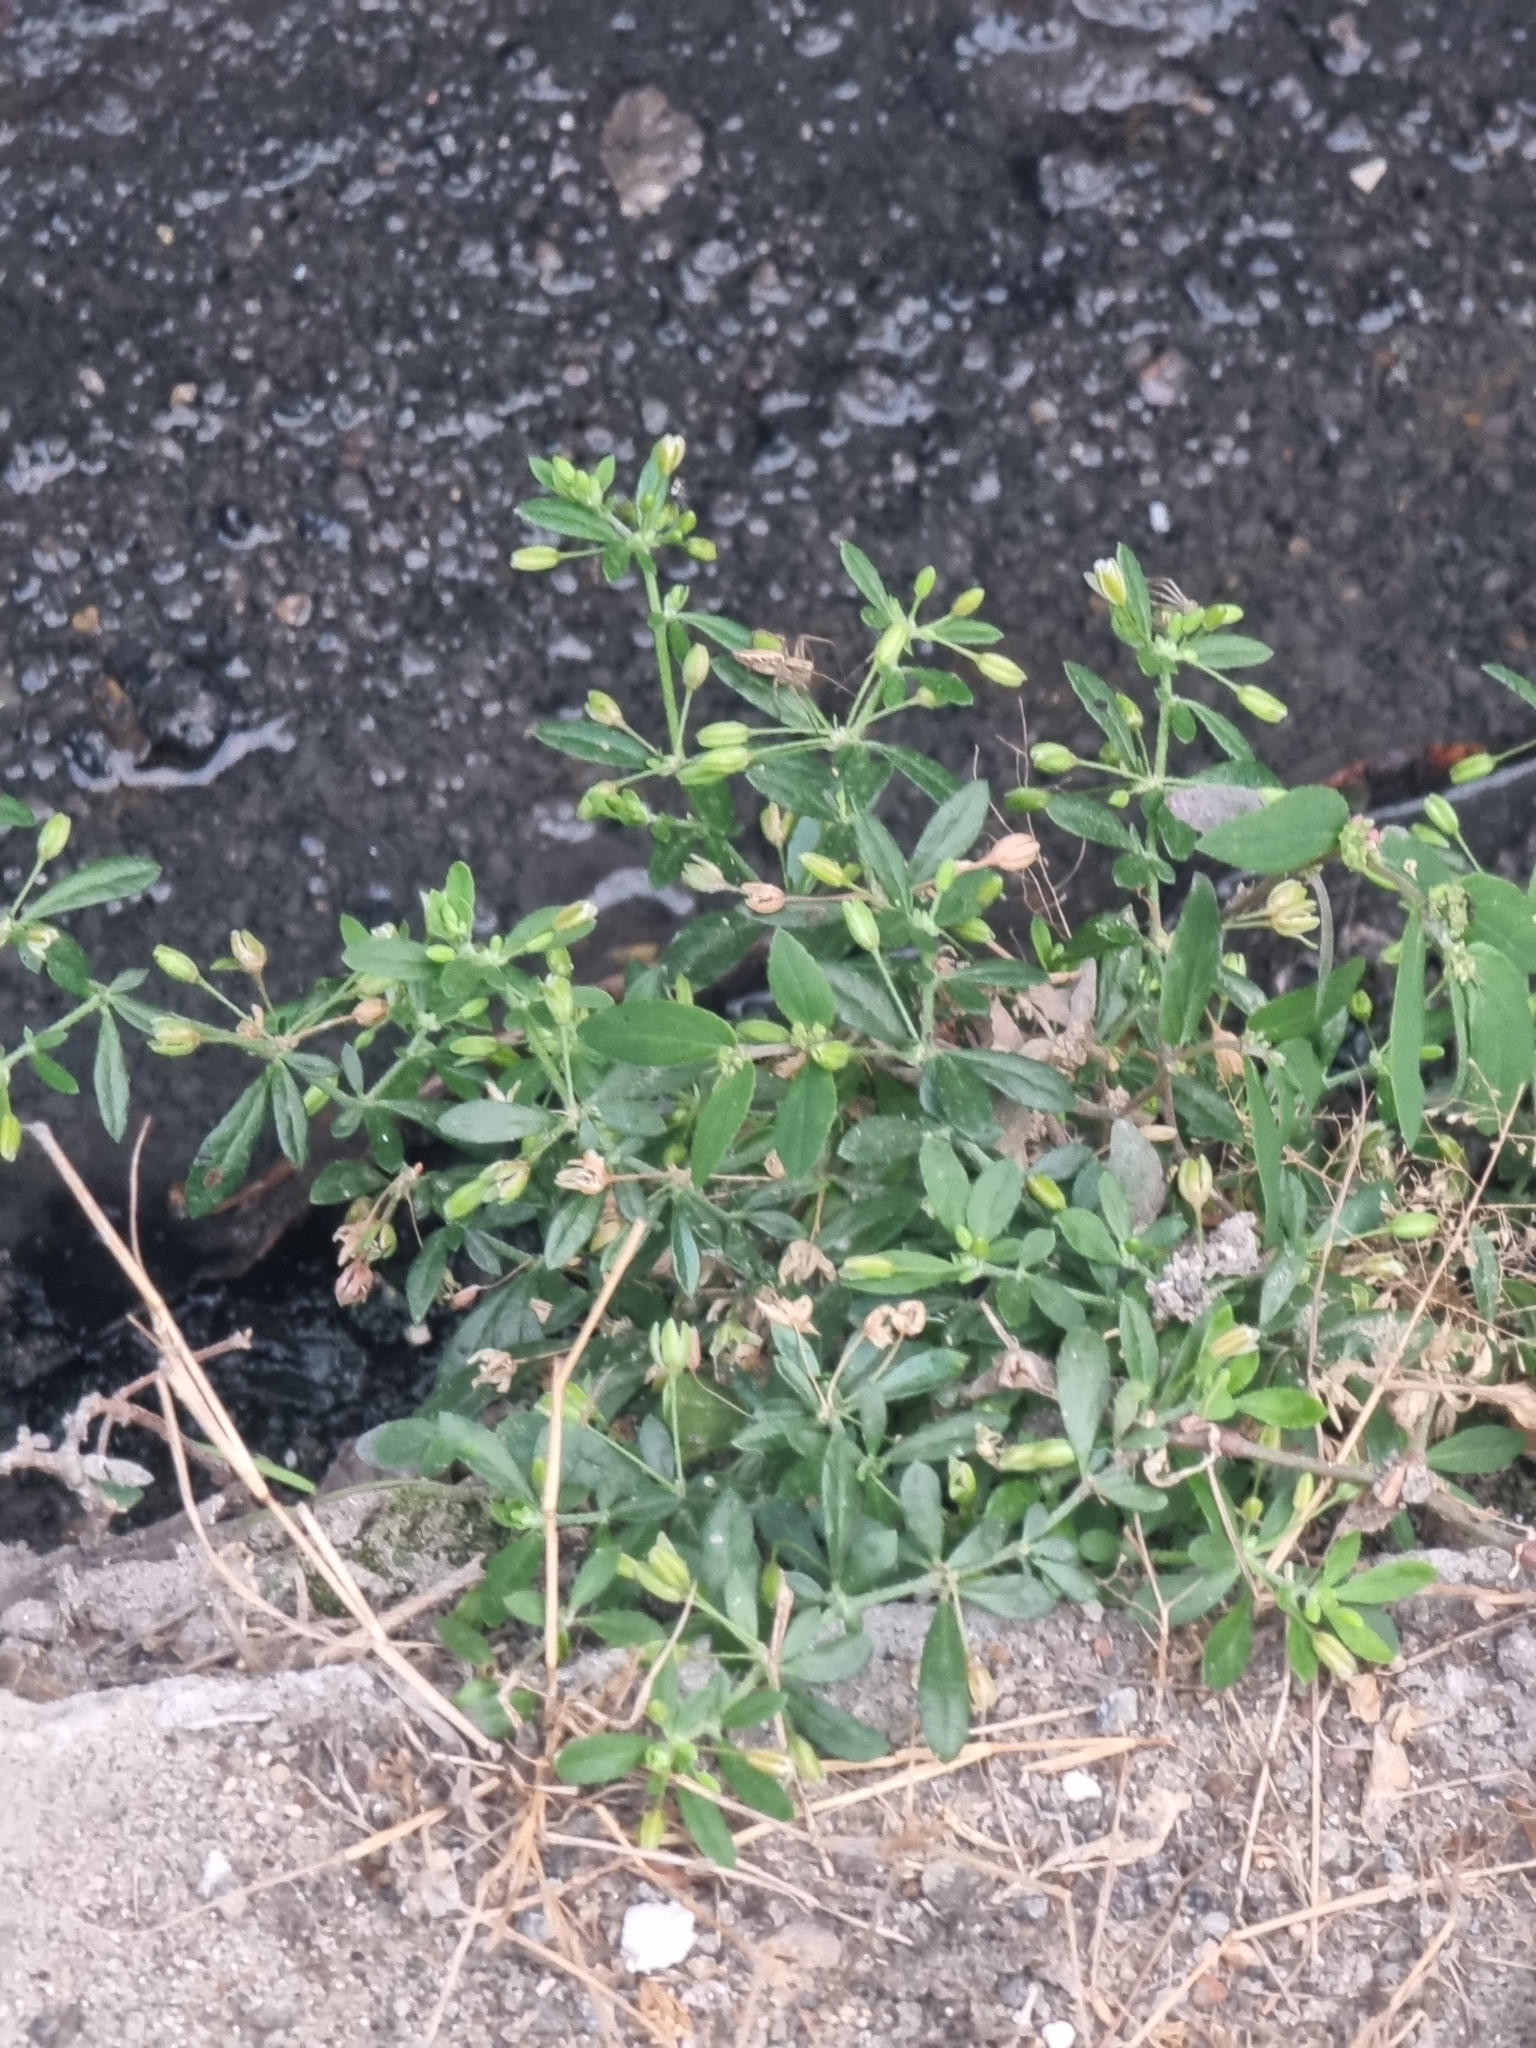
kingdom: Plantae
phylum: Tracheophyta
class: Magnoliopsida
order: Caryophyllales
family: Molluginaceae
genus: Glinus
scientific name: Glinus oppositifolius
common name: Slender carpetweed
